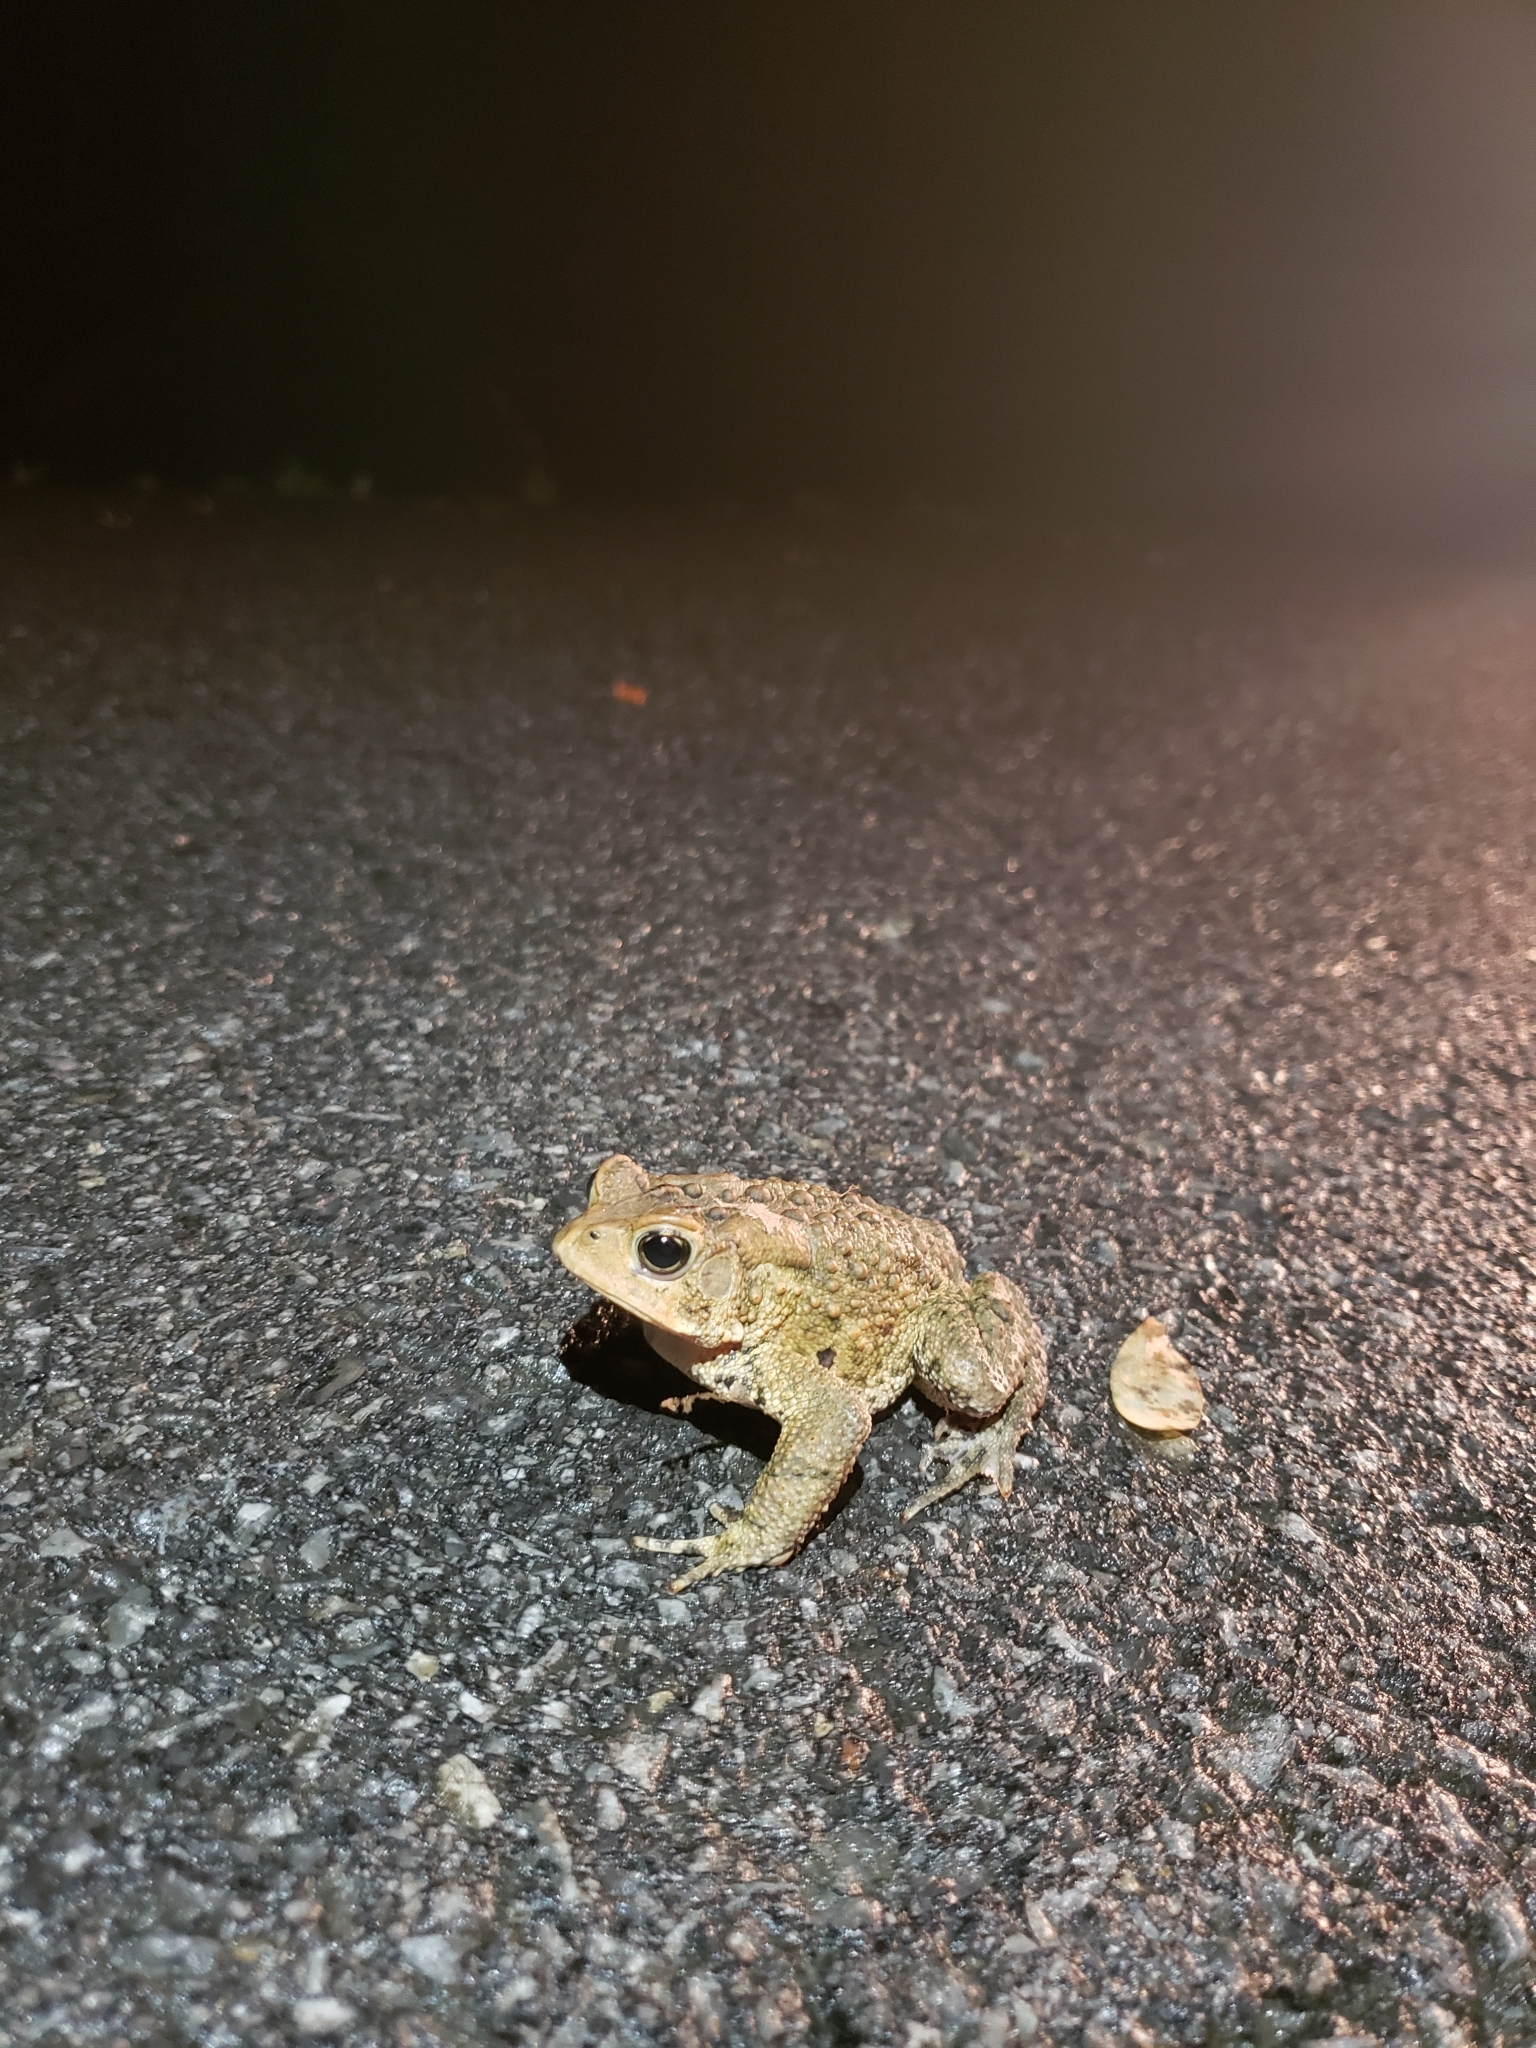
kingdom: Animalia
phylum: Chordata
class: Amphibia
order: Anura
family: Bufonidae
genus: Anaxyrus
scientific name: Anaxyrus americanus
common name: American toad
